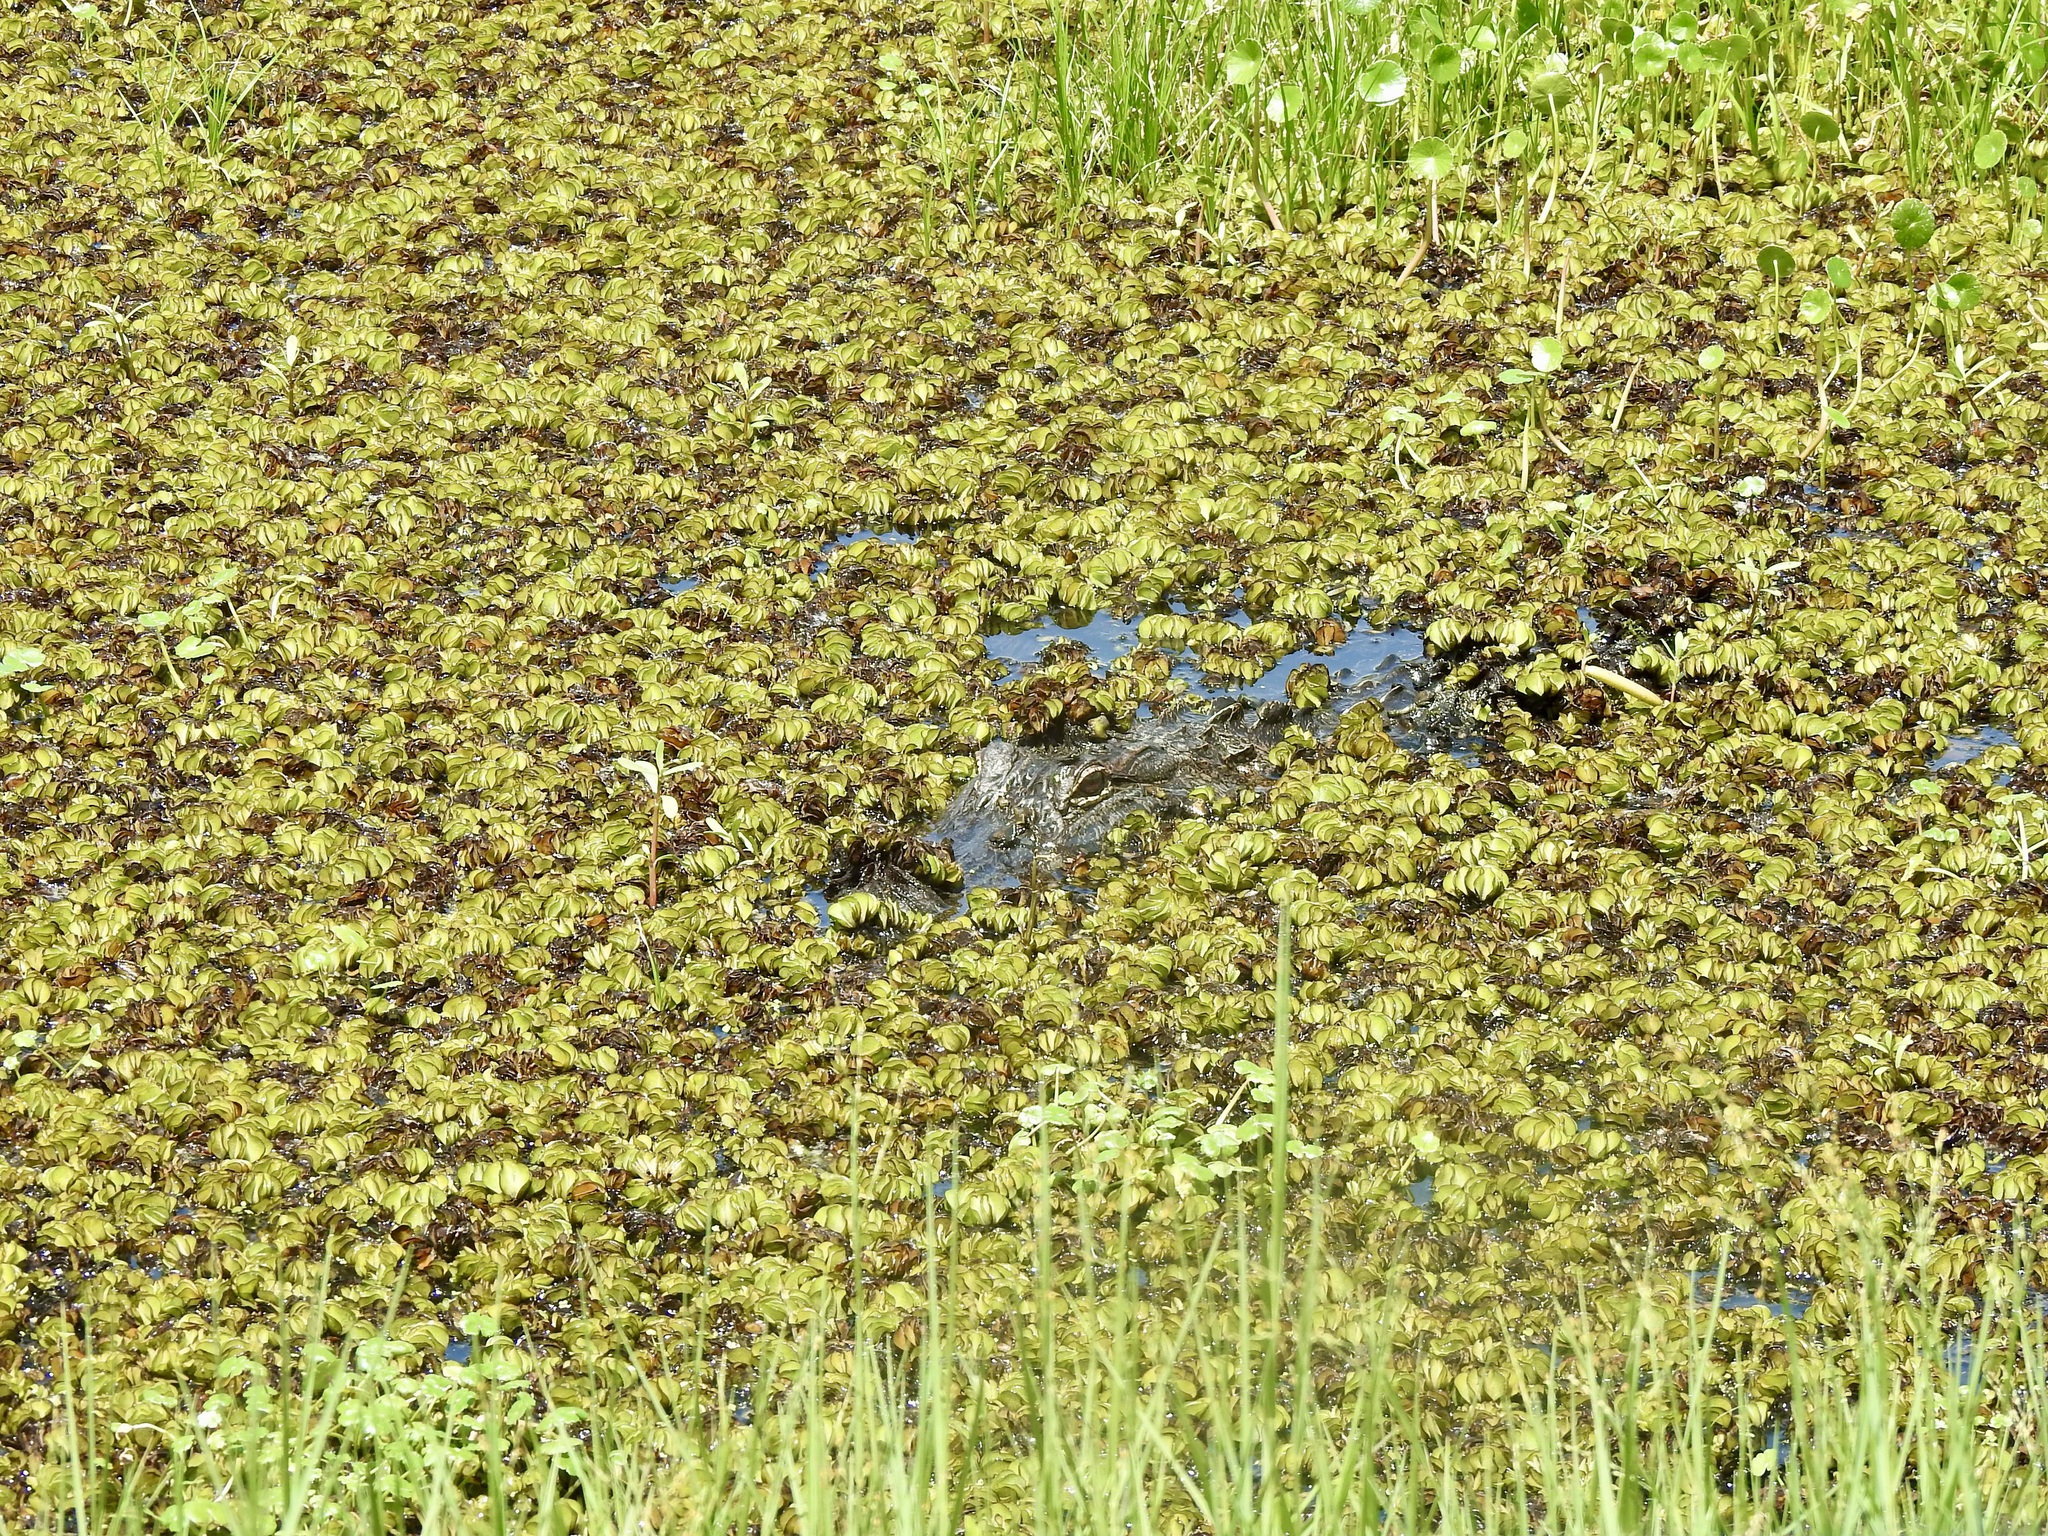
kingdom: Animalia
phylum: Chordata
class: Crocodylia
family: Alligatoridae
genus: Alligator
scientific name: Alligator mississippiensis
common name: American alligator
